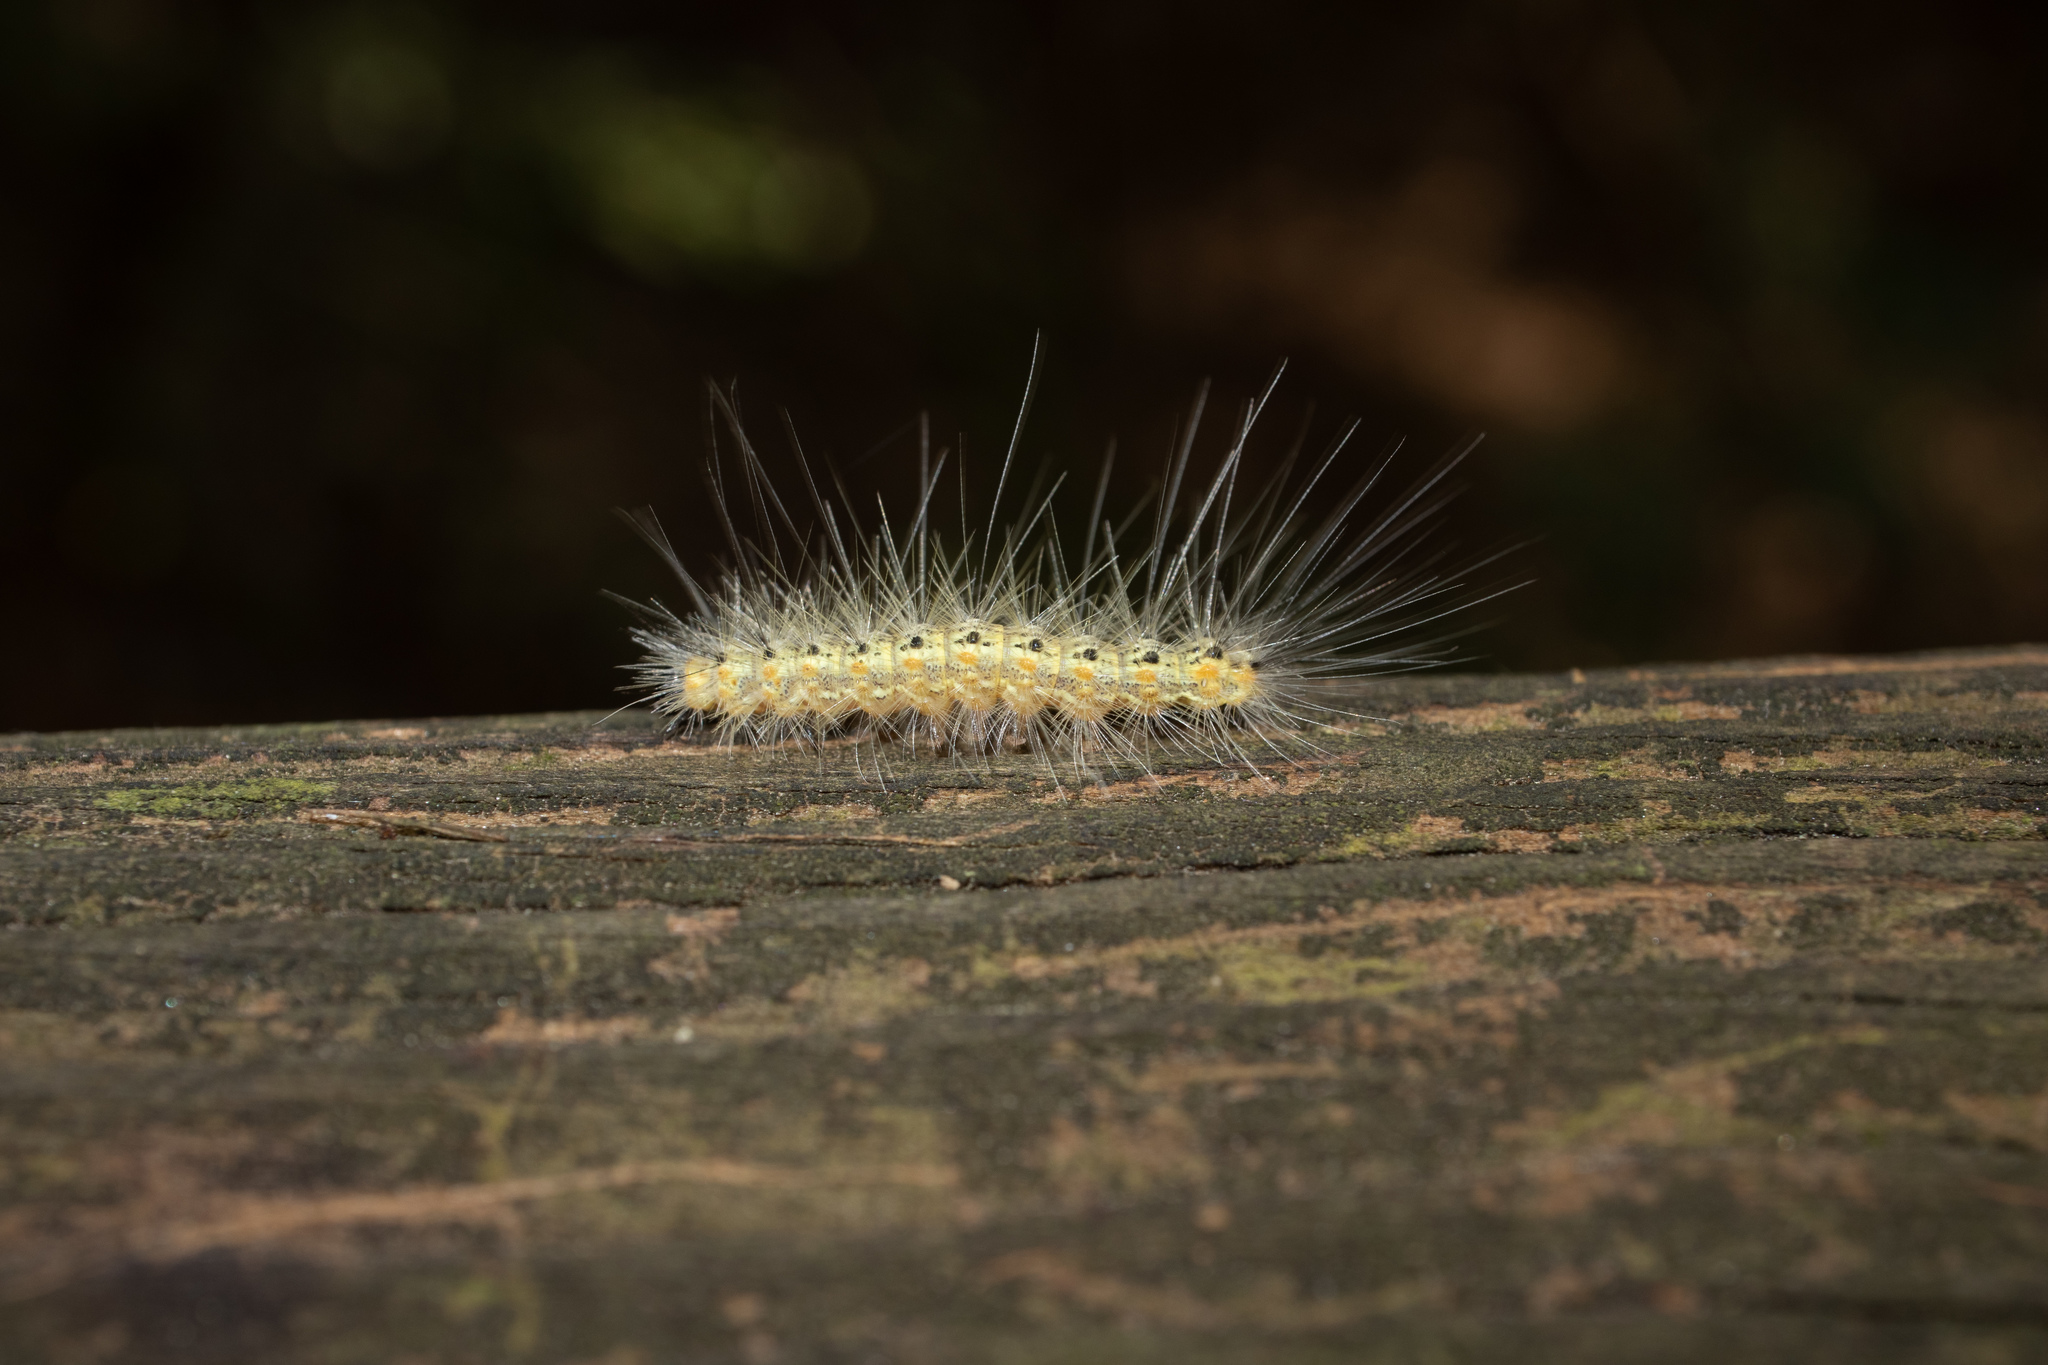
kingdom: Animalia
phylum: Arthropoda
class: Insecta
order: Lepidoptera
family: Erebidae
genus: Hyphantria
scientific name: Hyphantria cunea
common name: American white moth
